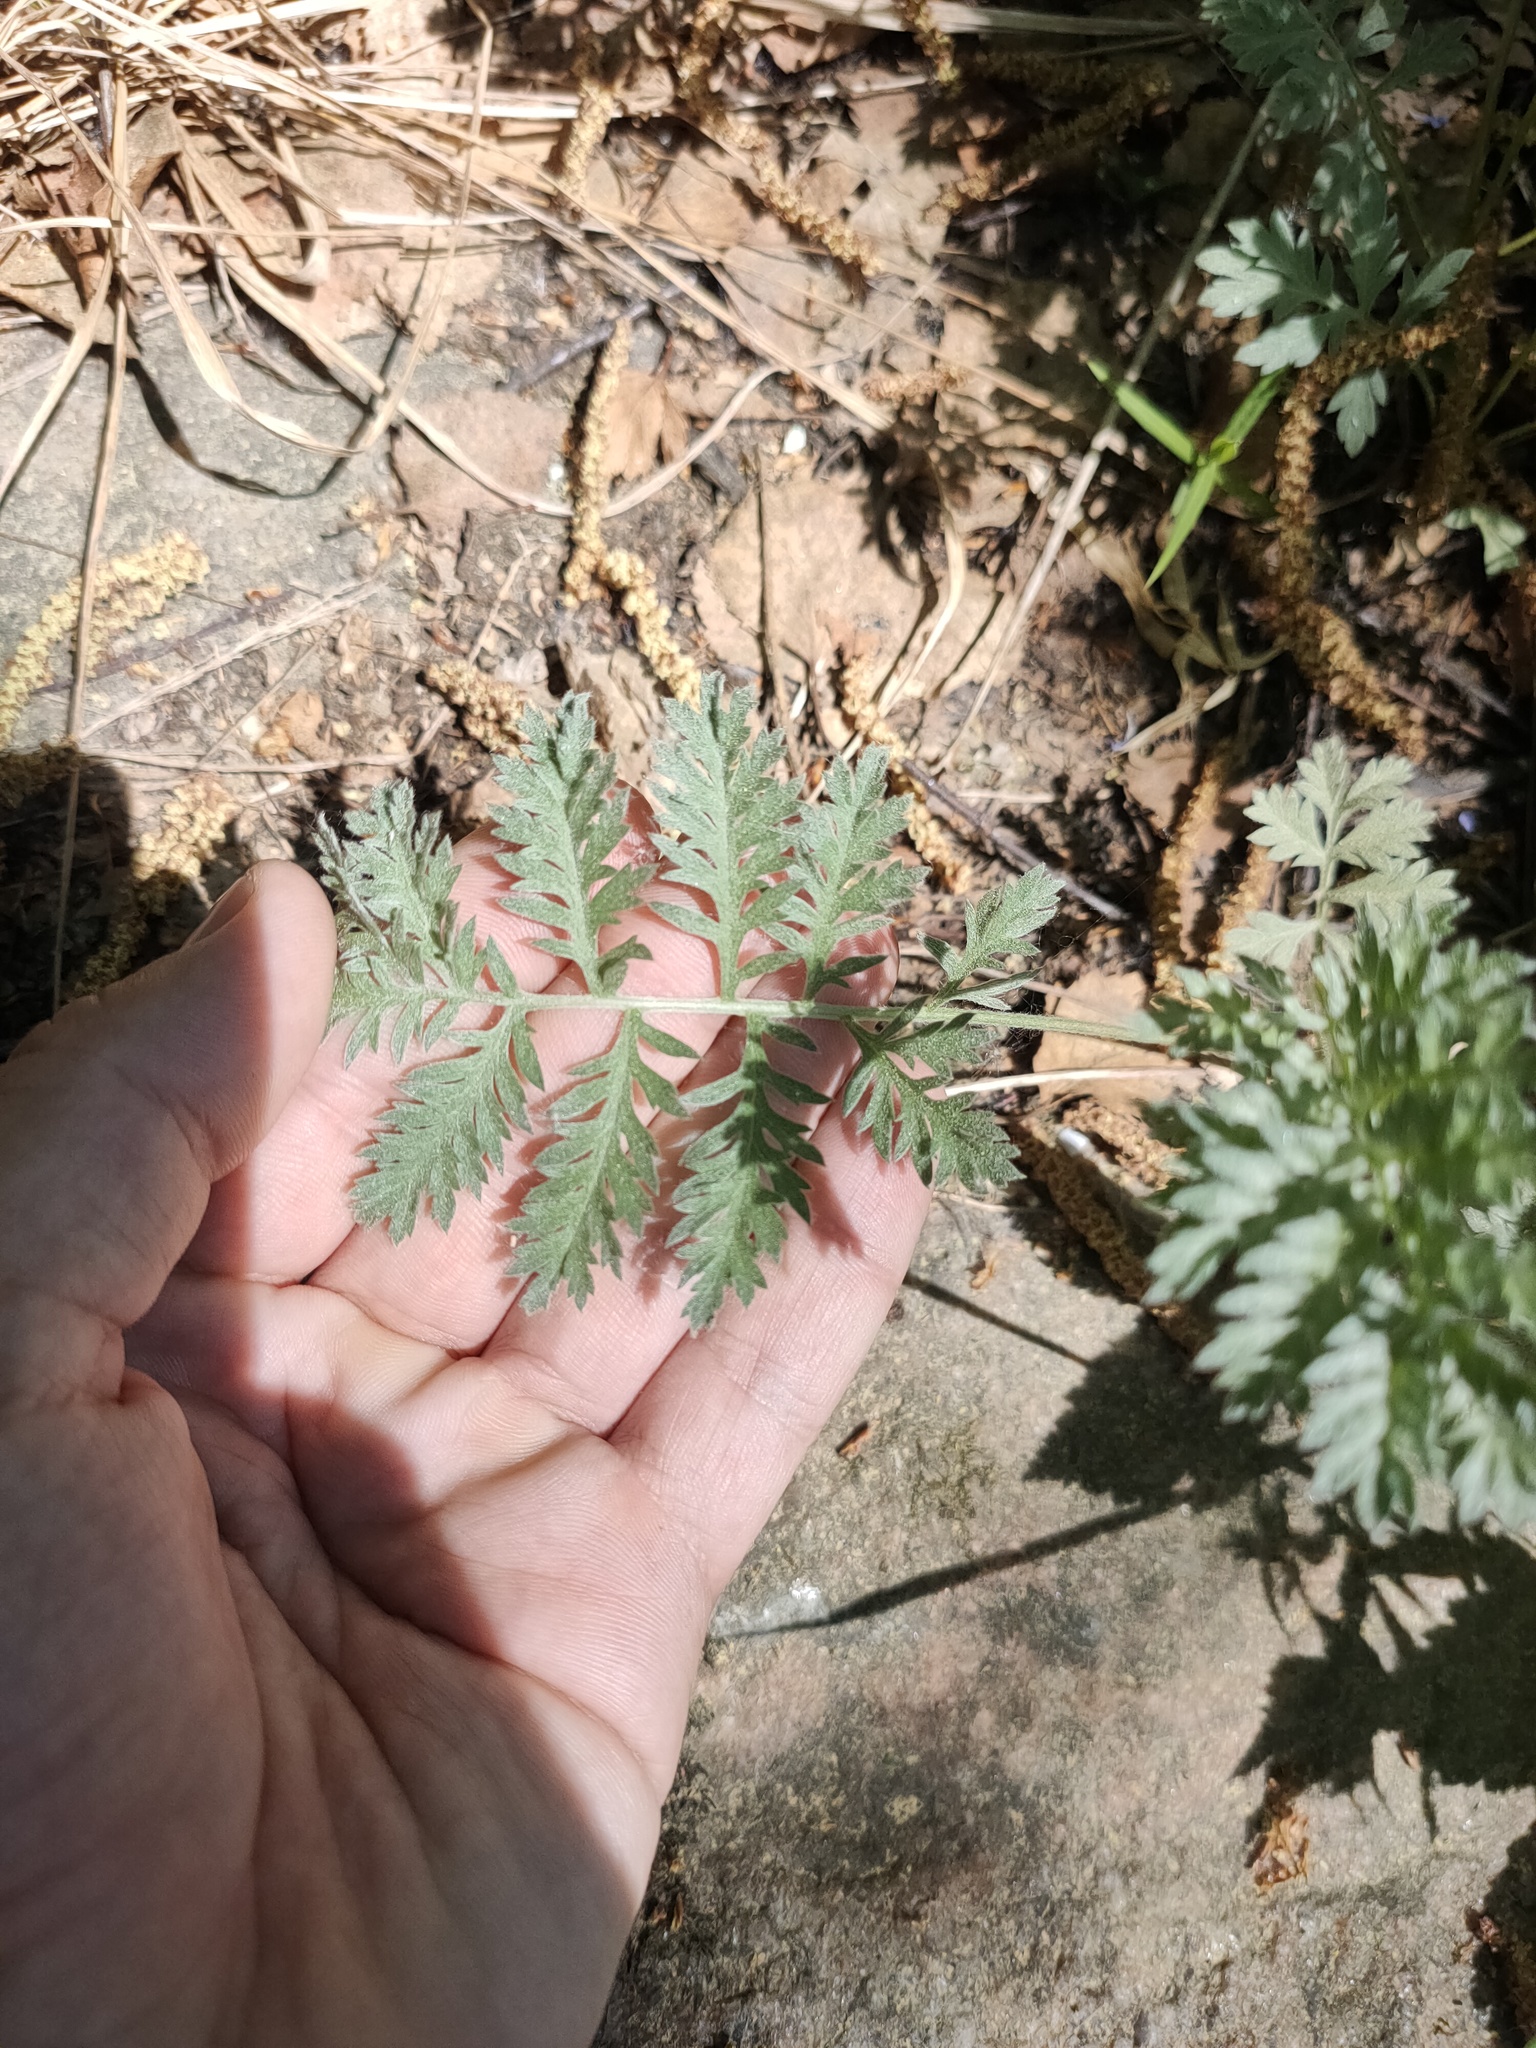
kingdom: Plantae
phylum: Tracheophyta
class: Magnoliopsida
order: Asterales
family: Asteraceae
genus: Artemisia
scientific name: Artemisia armeniaca
